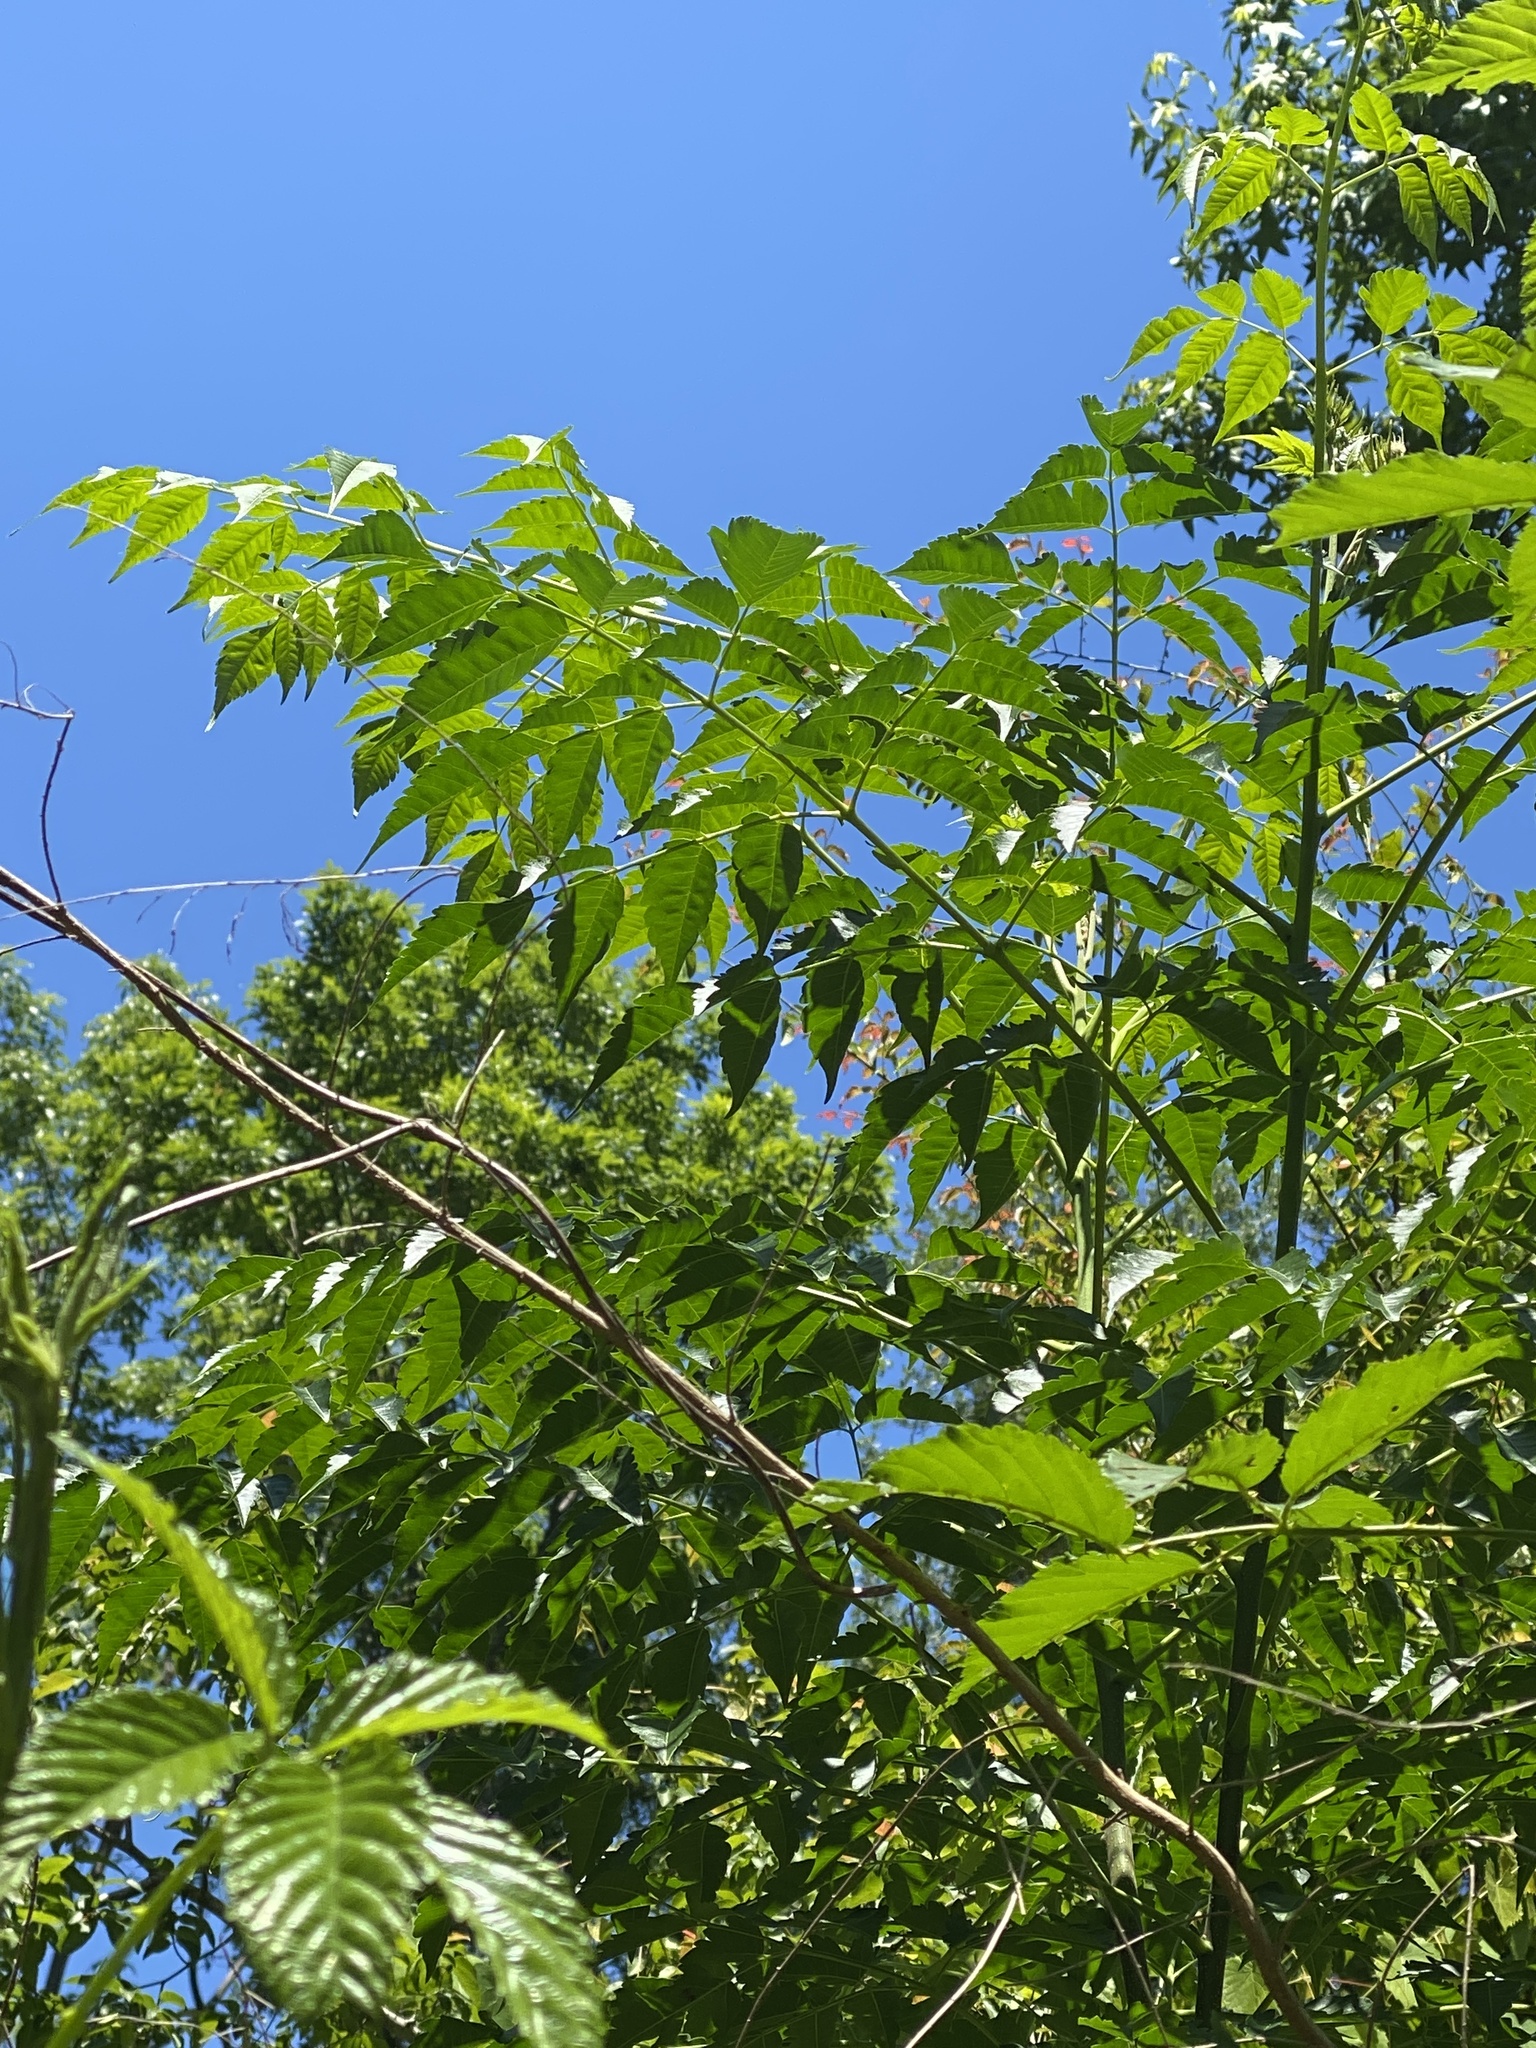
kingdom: Plantae
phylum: Tracheophyta
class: Magnoliopsida
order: Sapindales
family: Meliaceae
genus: Melia
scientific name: Melia azedarach
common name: Chinaberrytree
